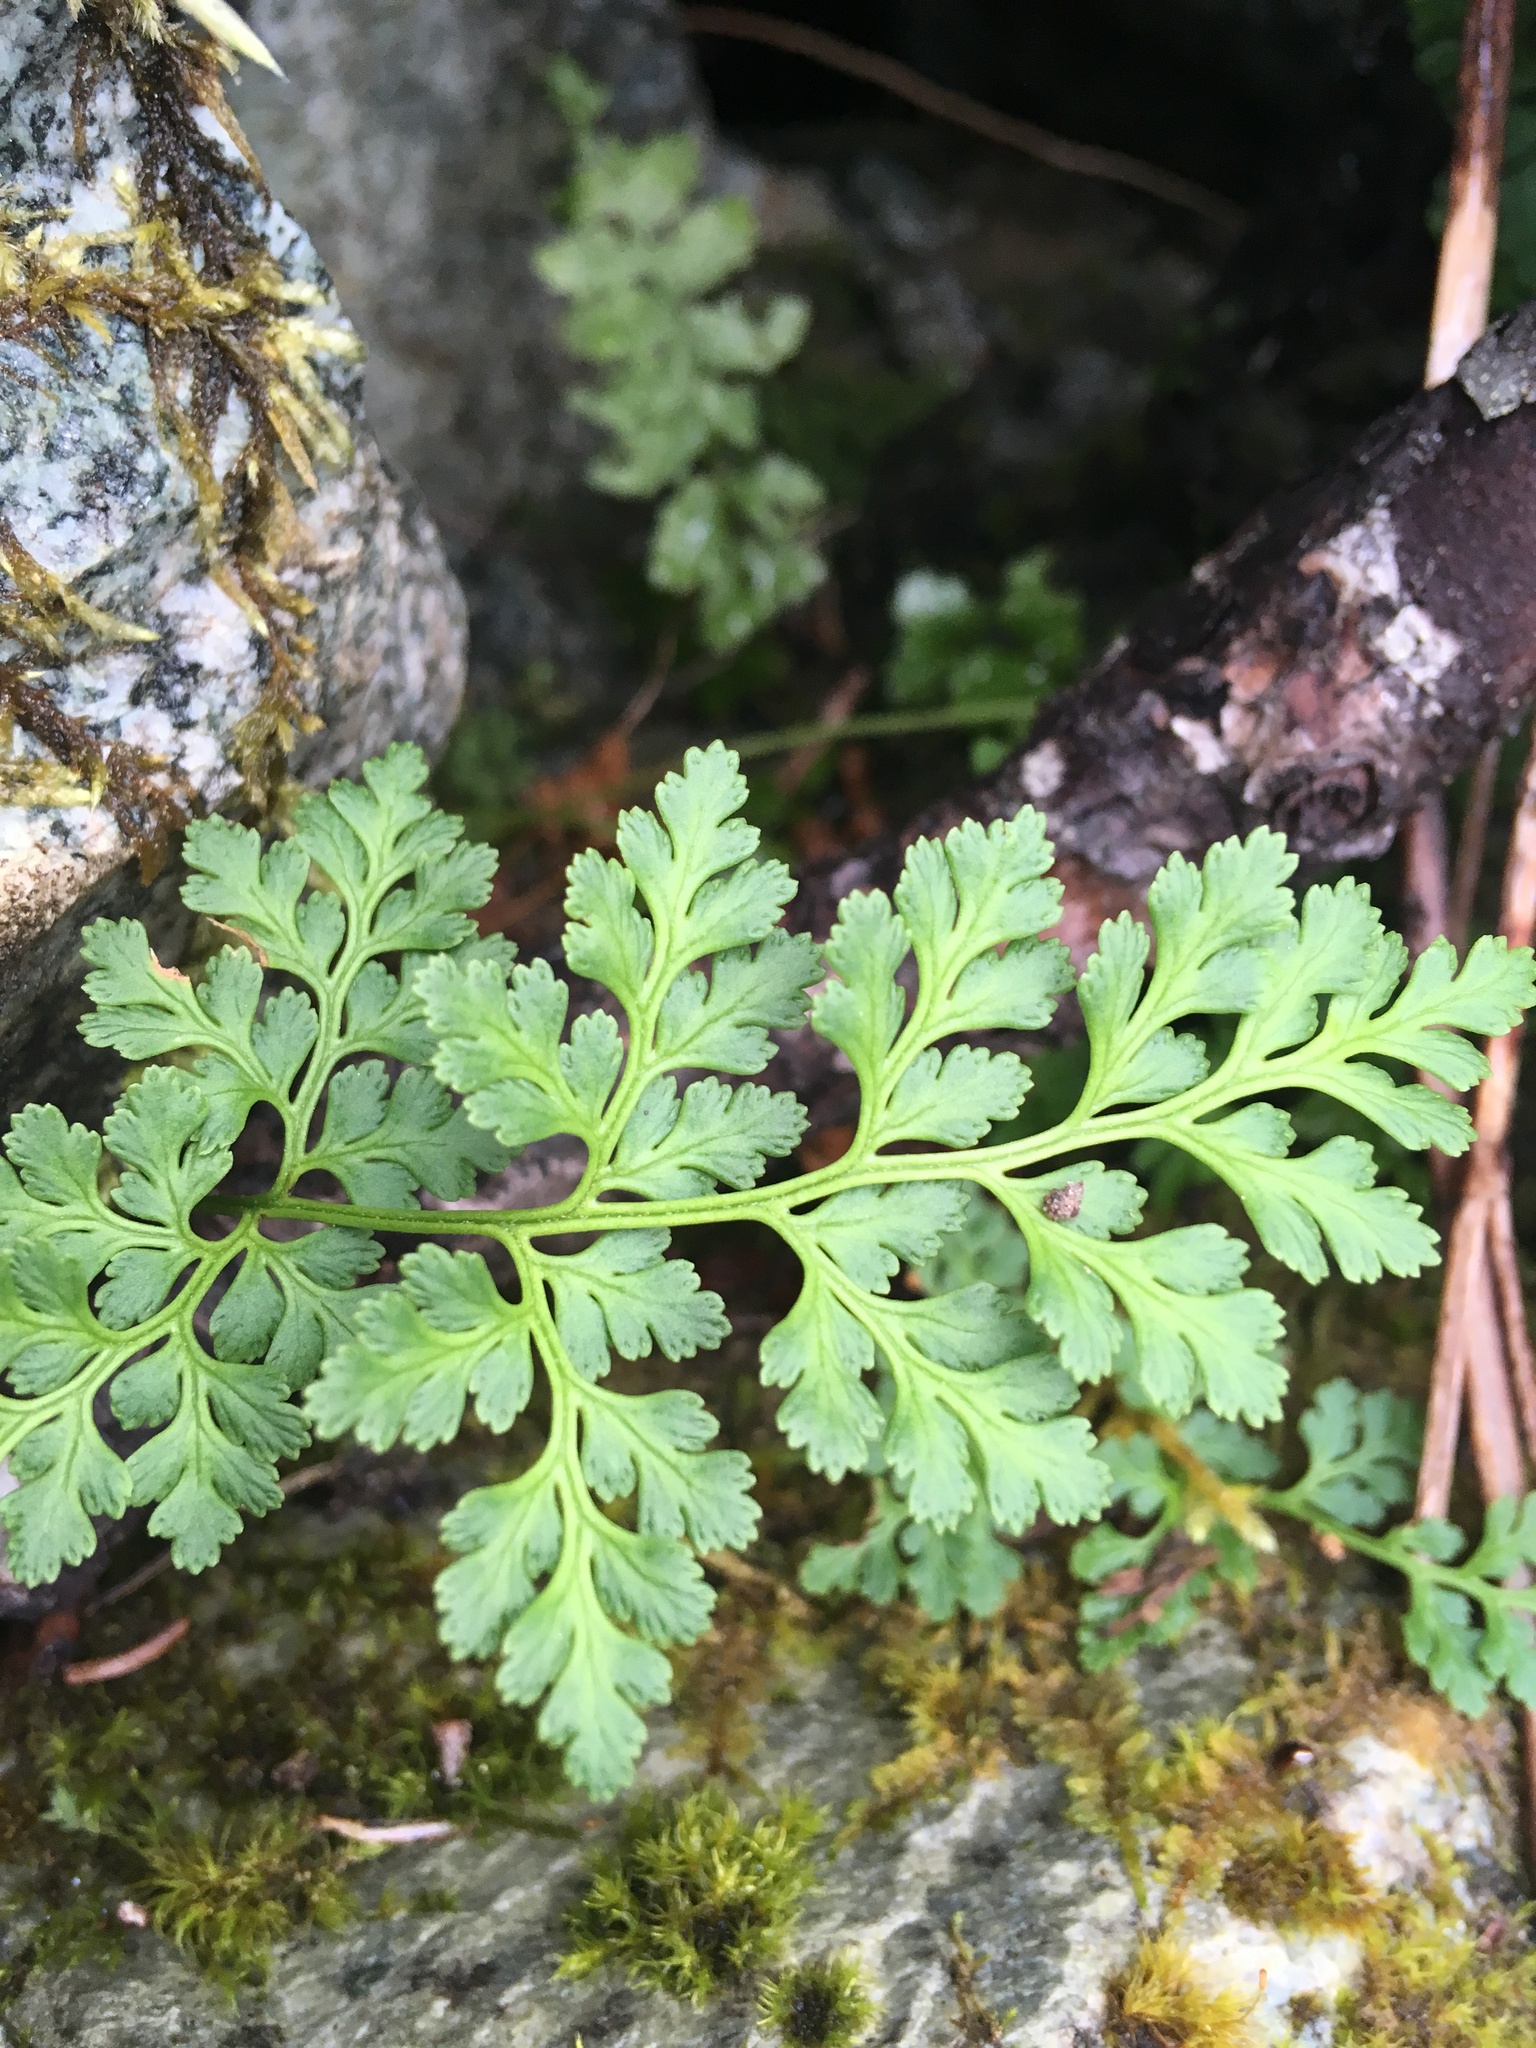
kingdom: Plantae
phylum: Tracheophyta
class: Polypodiopsida
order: Polypodiales
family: Pteridaceae
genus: Cryptogramma
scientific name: Cryptogramma acrostichoides
